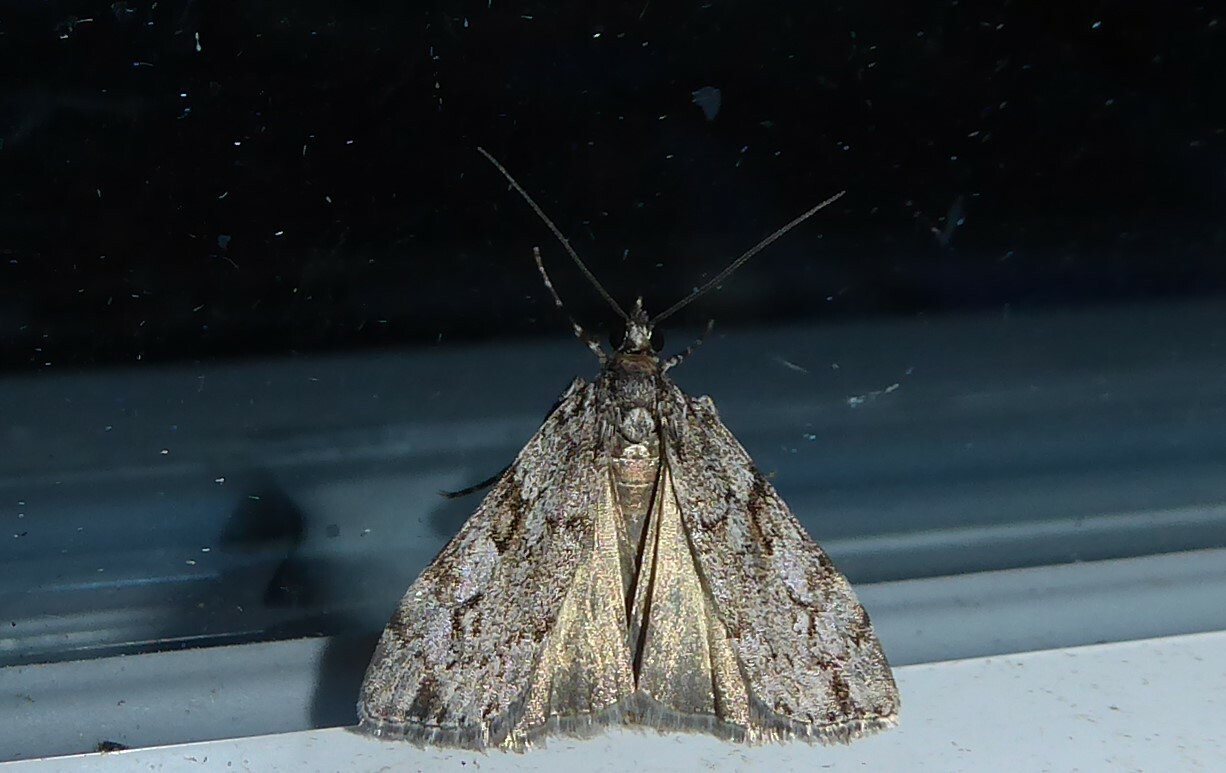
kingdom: Animalia
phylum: Arthropoda
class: Insecta
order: Lepidoptera
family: Crambidae
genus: Eudonia
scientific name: Eudonia bisinualis
